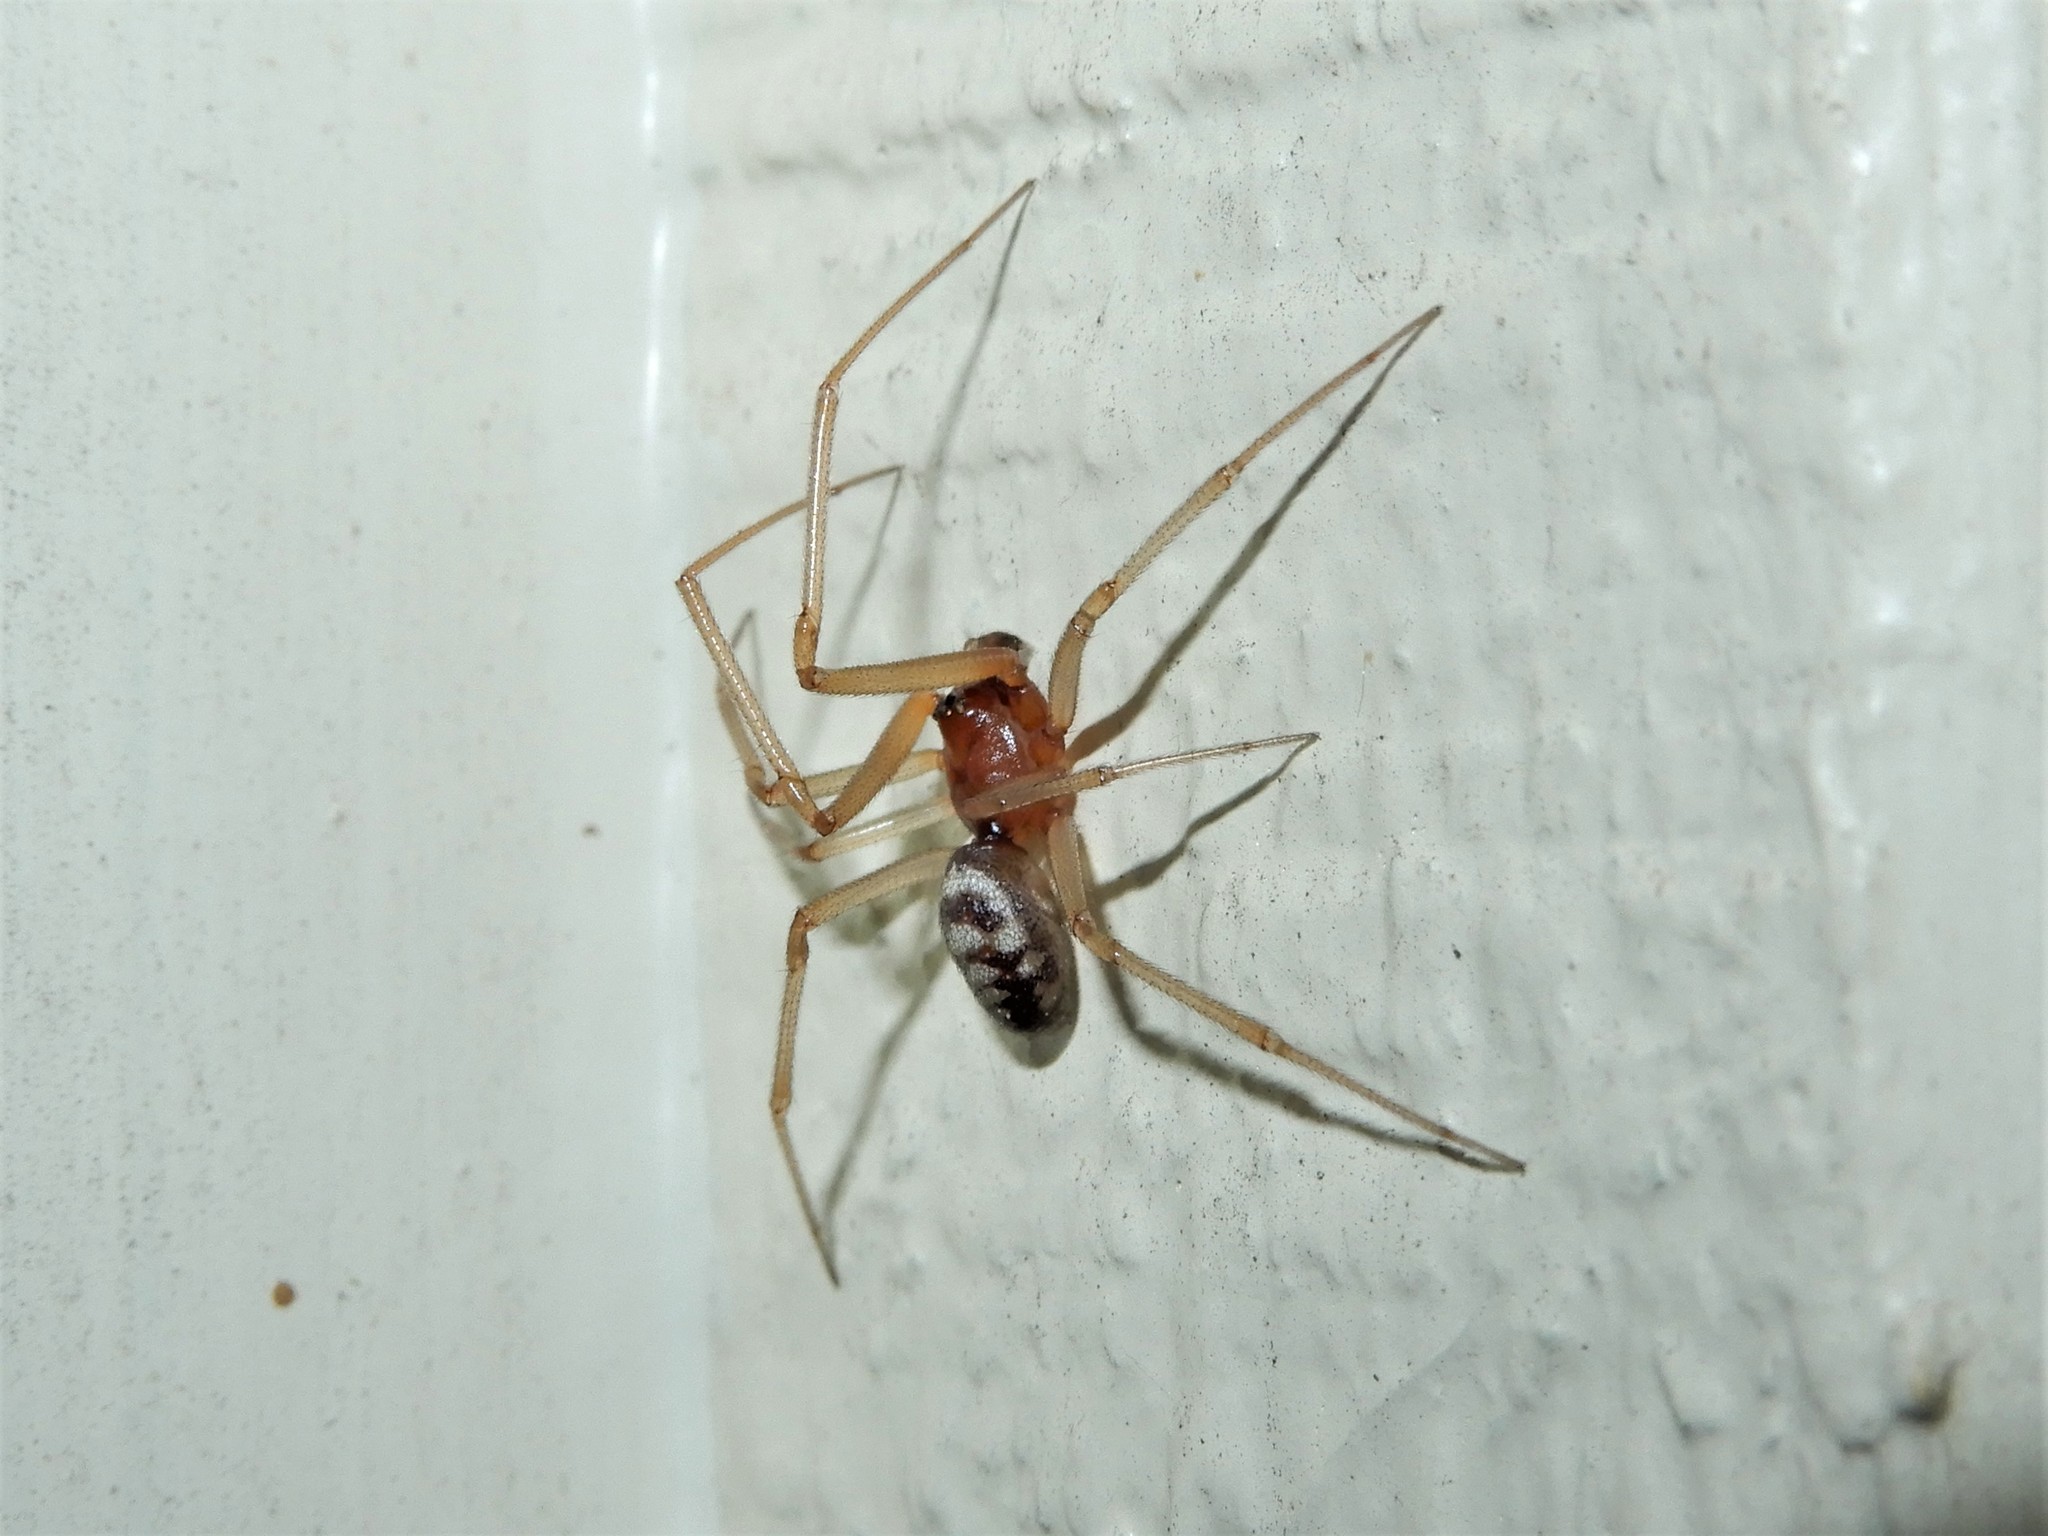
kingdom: Animalia
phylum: Arthropoda
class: Arachnida
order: Araneae
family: Theridiidae
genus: Steatoda
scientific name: Steatoda grossa
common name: False black widow
